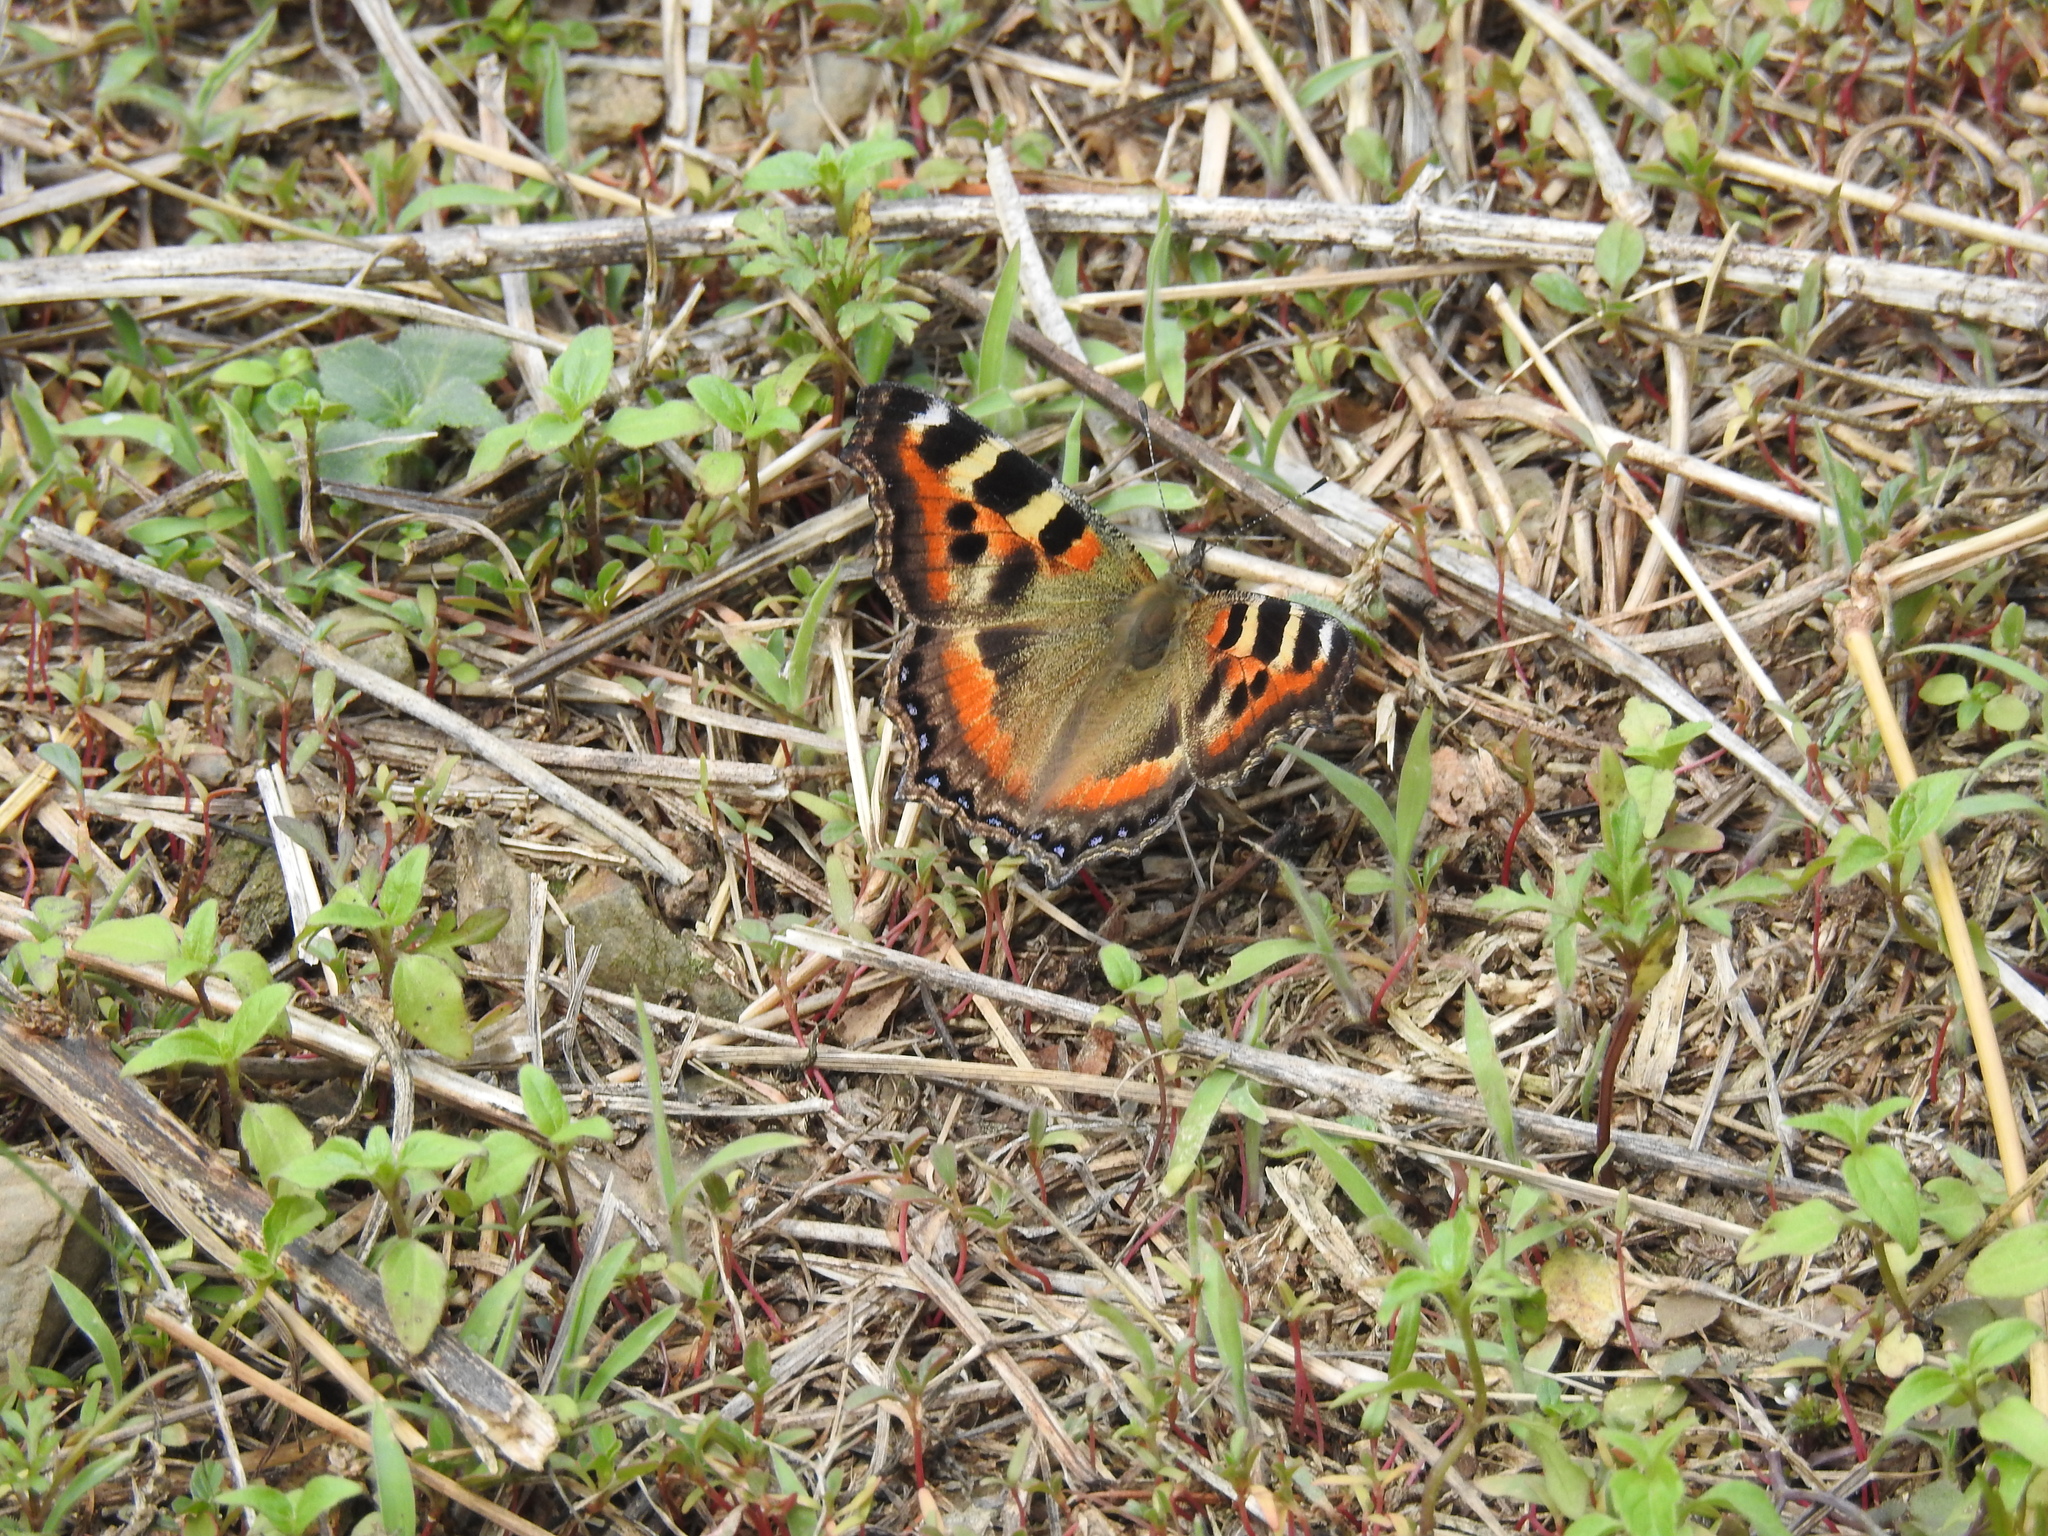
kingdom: Animalia
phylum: Arthropoda
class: Insecta
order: Lepidoptera
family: Nymphalidae
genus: Aglais
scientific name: Aglais caschmirensis
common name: Indian tortoiseshell
